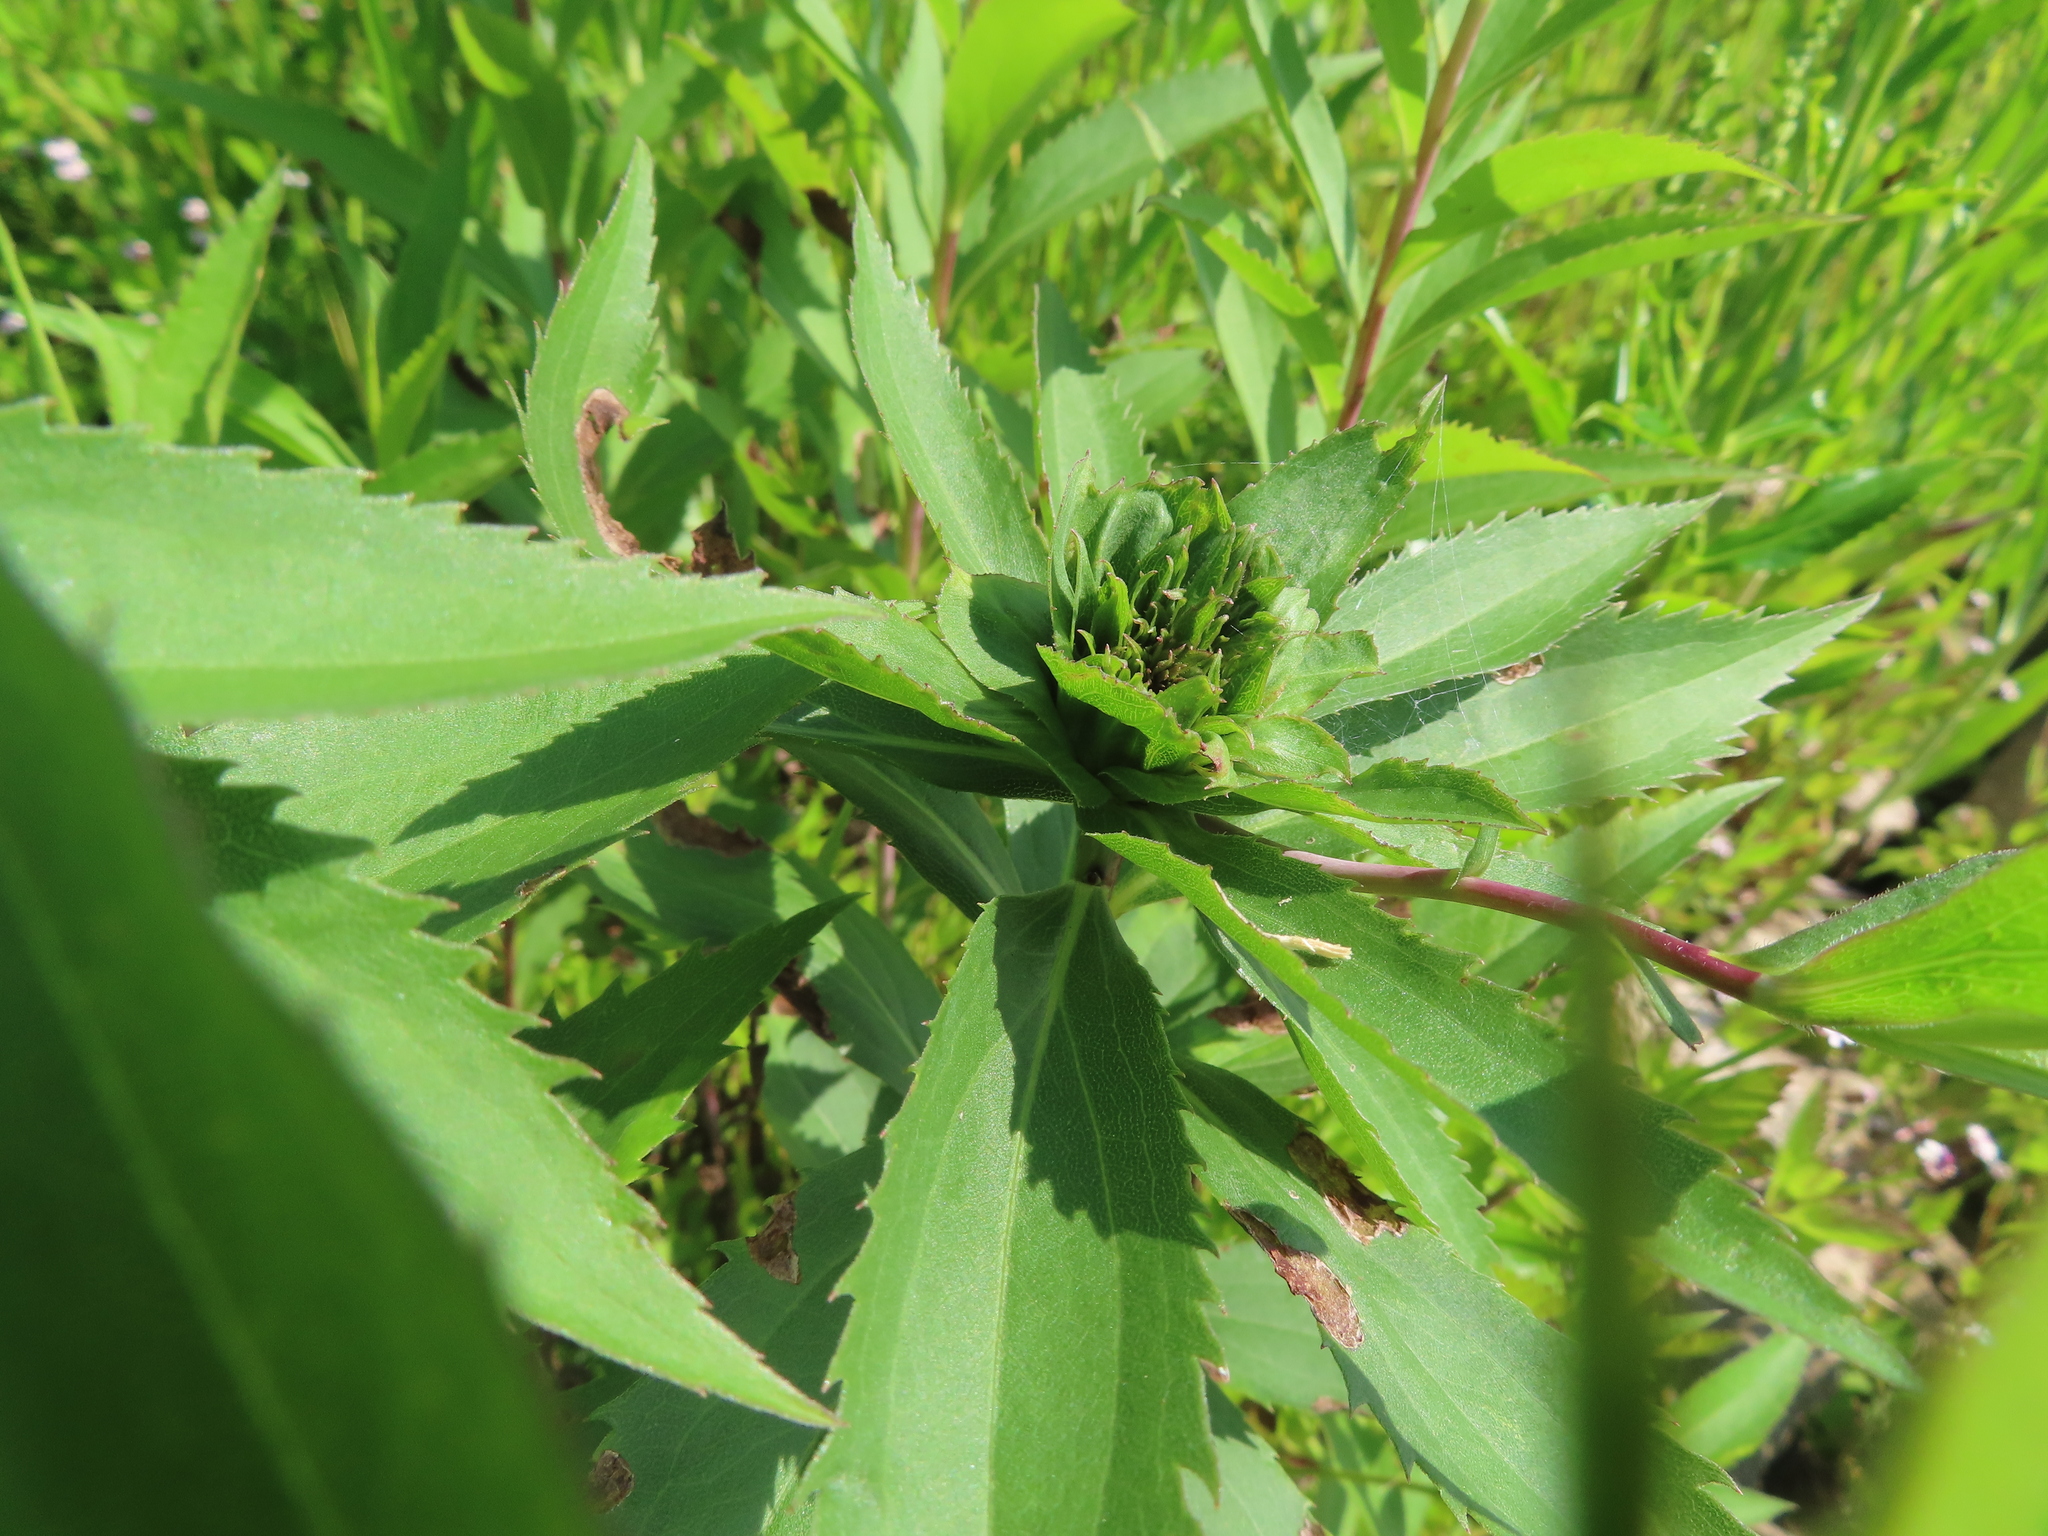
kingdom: Animalia
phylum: Arthropoda
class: Insecta
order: Diptera
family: Cecidomyiidae
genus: Rhopalomyia
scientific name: Rhopalomyia capitata
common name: Giant goldenrod bunch gall midge
